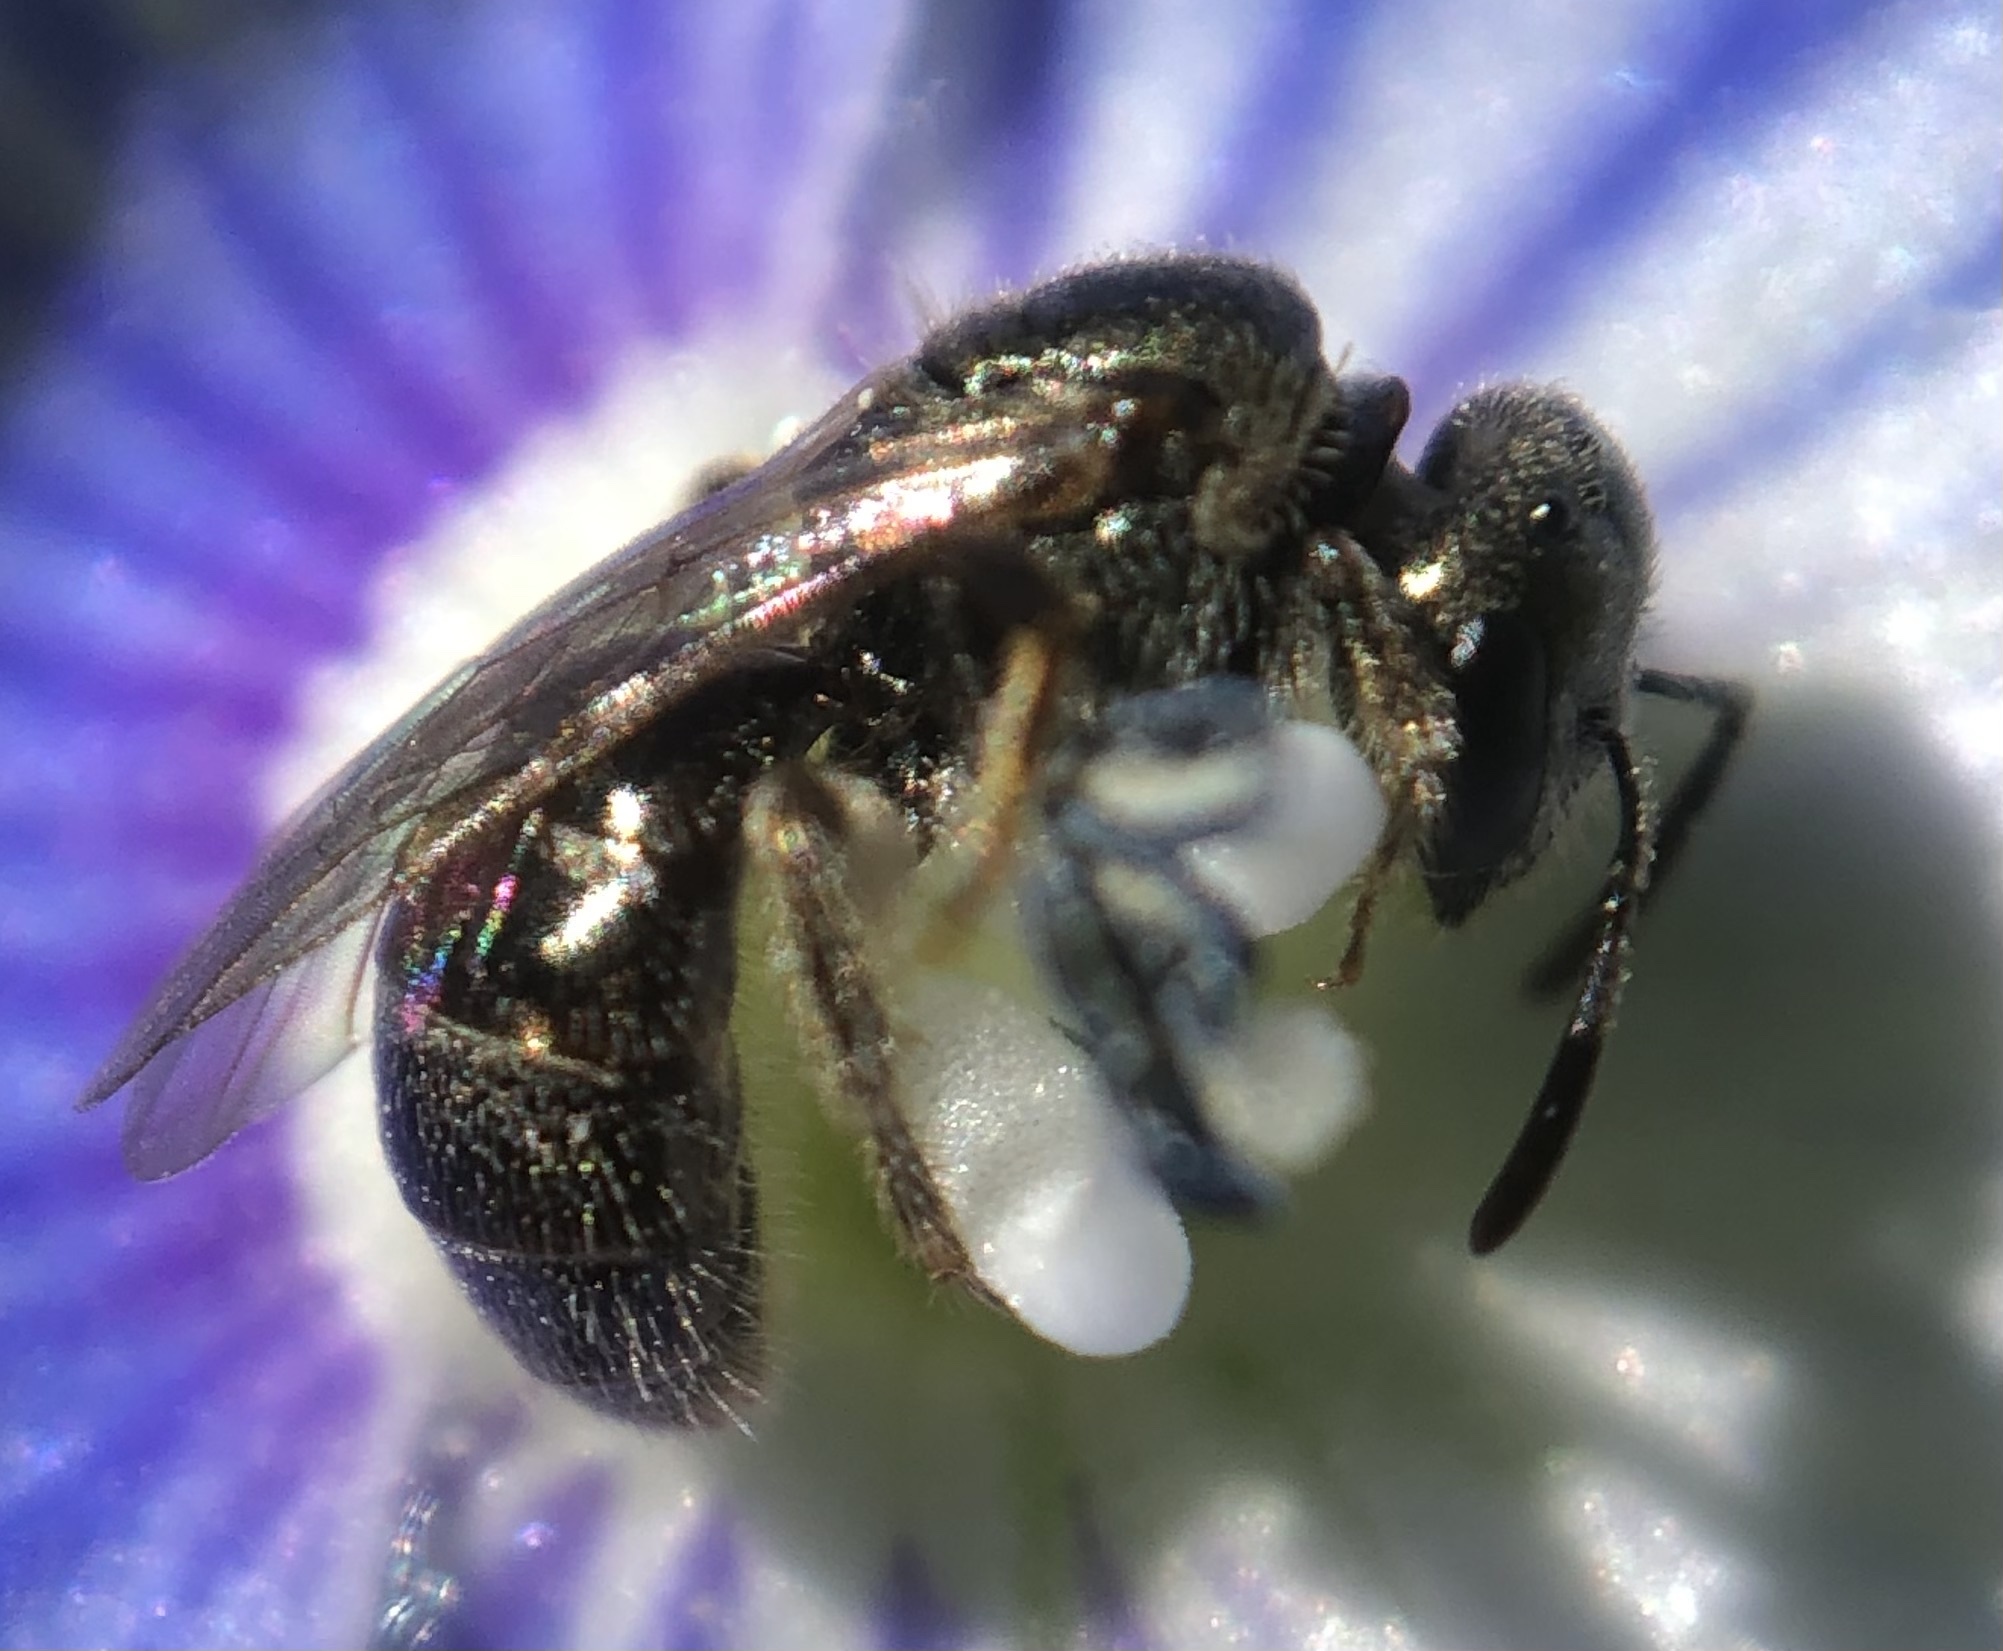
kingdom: Animalia
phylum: Arthropoda
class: Insecta
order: Hymenoptera
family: Halictidae
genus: Lasioglossum
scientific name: Lasioglossum imitatum
